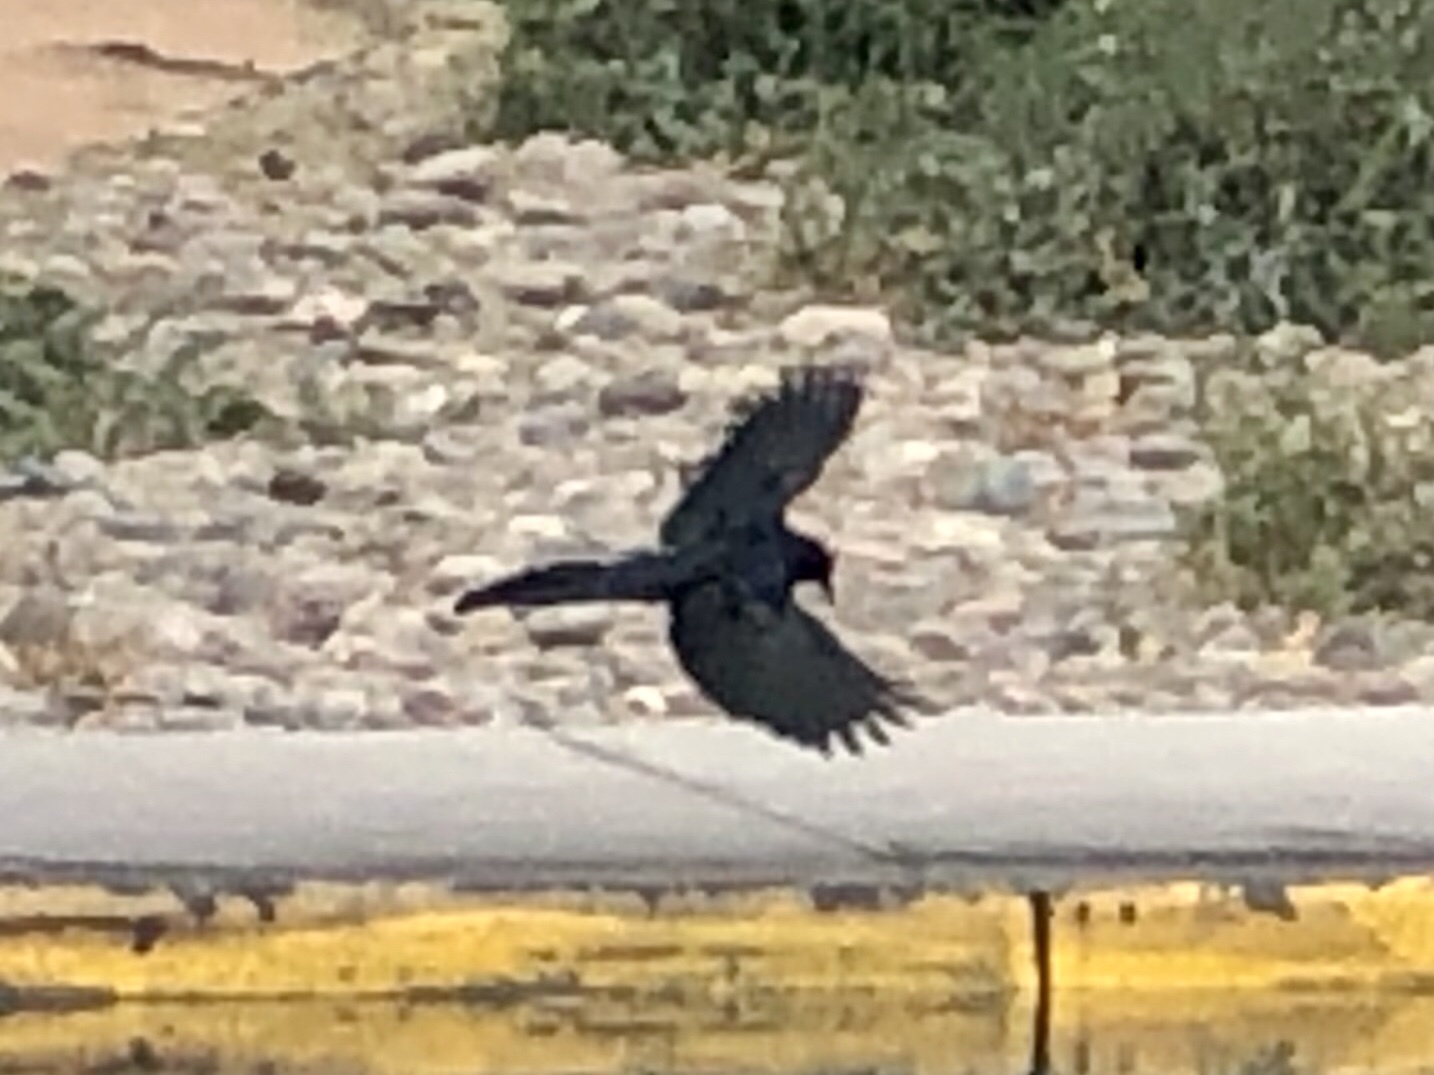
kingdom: Animalia
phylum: Chordata
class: Aves
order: Passeriformes
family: Icteridae
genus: Quiscalus
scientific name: Quiscalus mexicanus
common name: Great-tailed grackle
